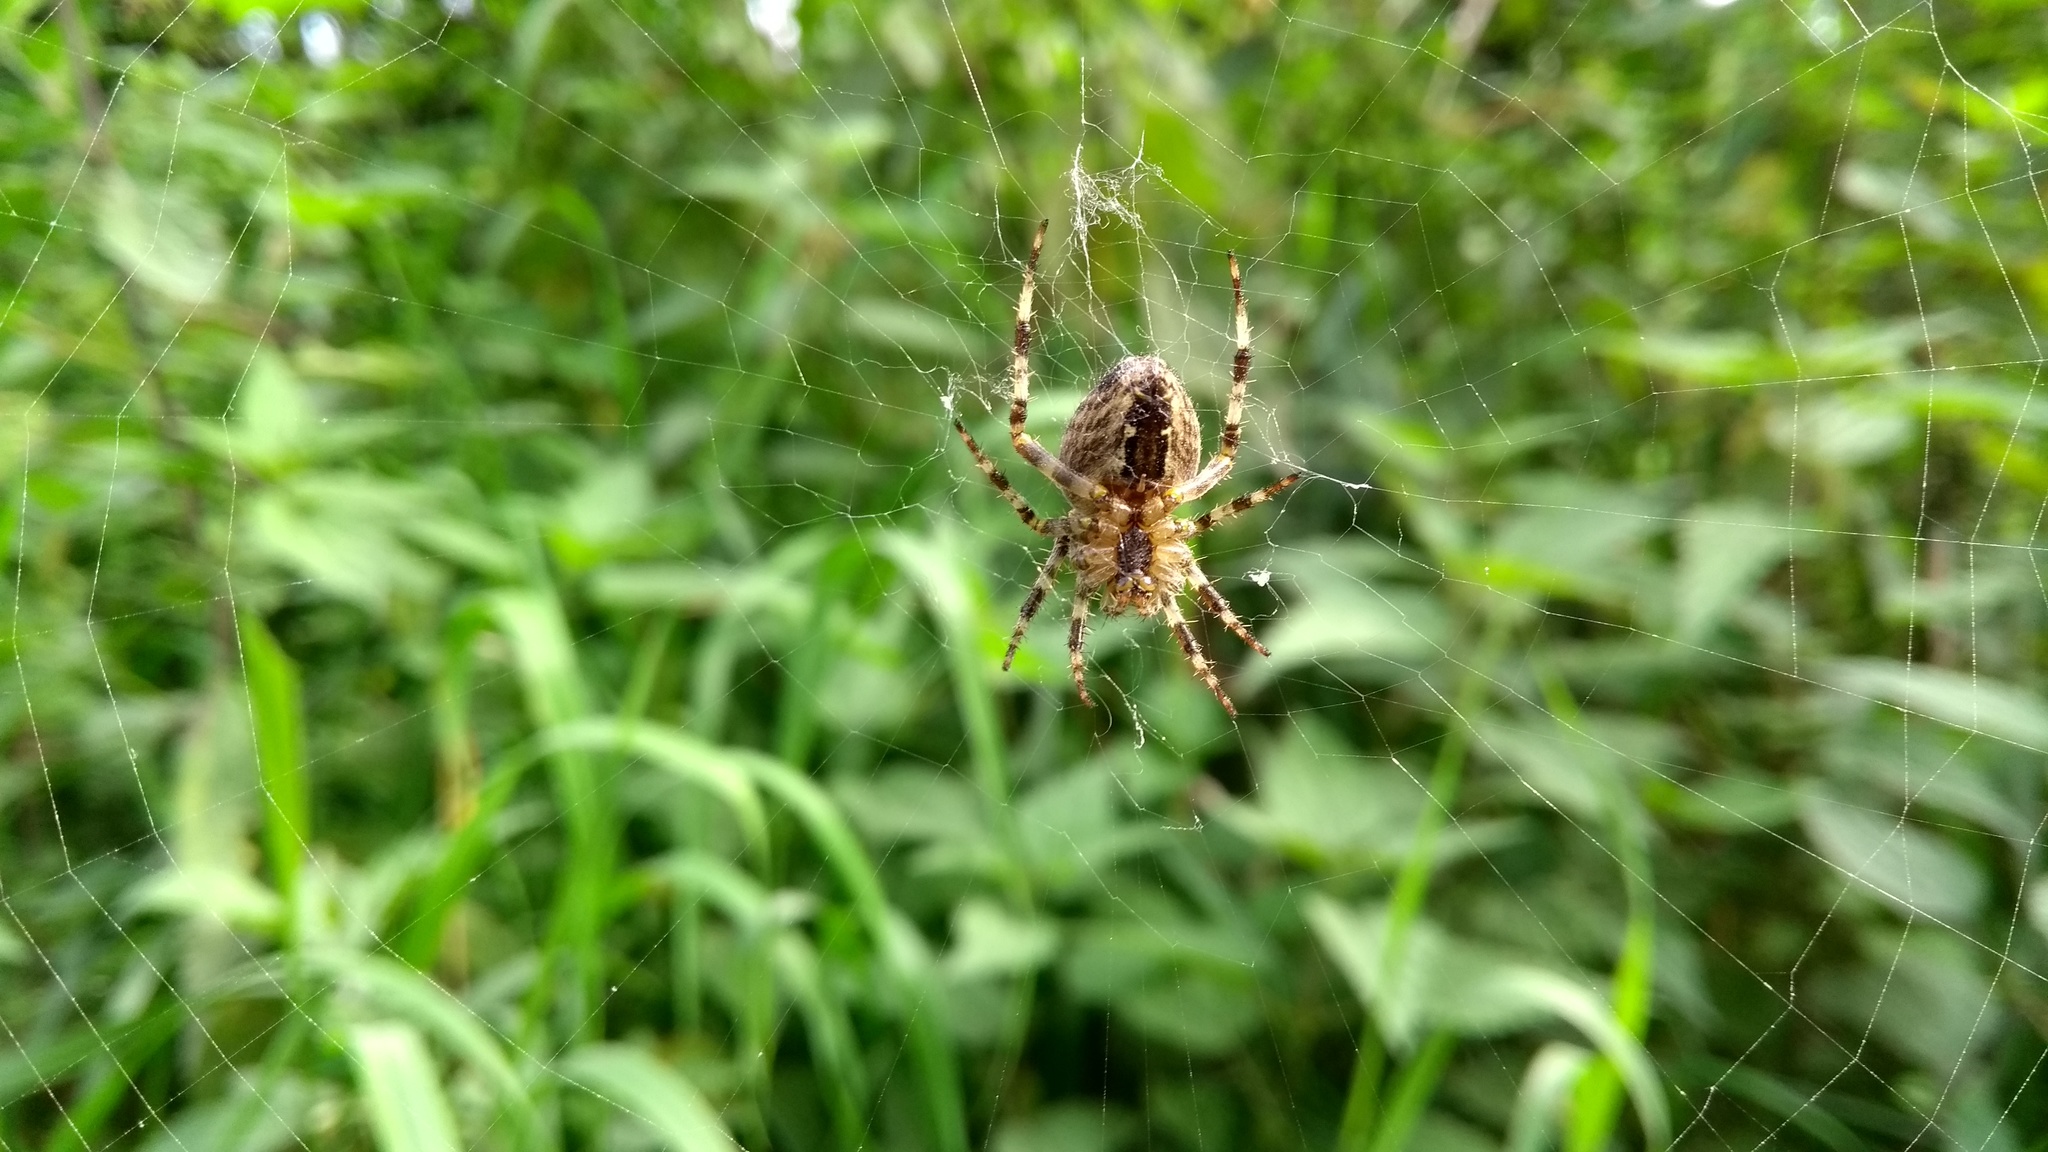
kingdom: Animalia
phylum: Arthropoda
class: Arachnida
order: Araneae
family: Araneidae
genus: Araneus
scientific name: Araneus diadematus
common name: Cross orbweaver
